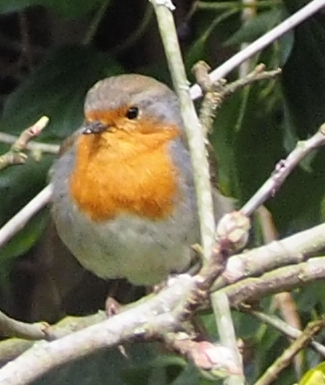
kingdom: Animalia
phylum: Chordata
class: Aves
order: Passeriformes
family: Muscicapidae
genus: Erithacus
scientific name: Erithacus rubecula
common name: European robin
